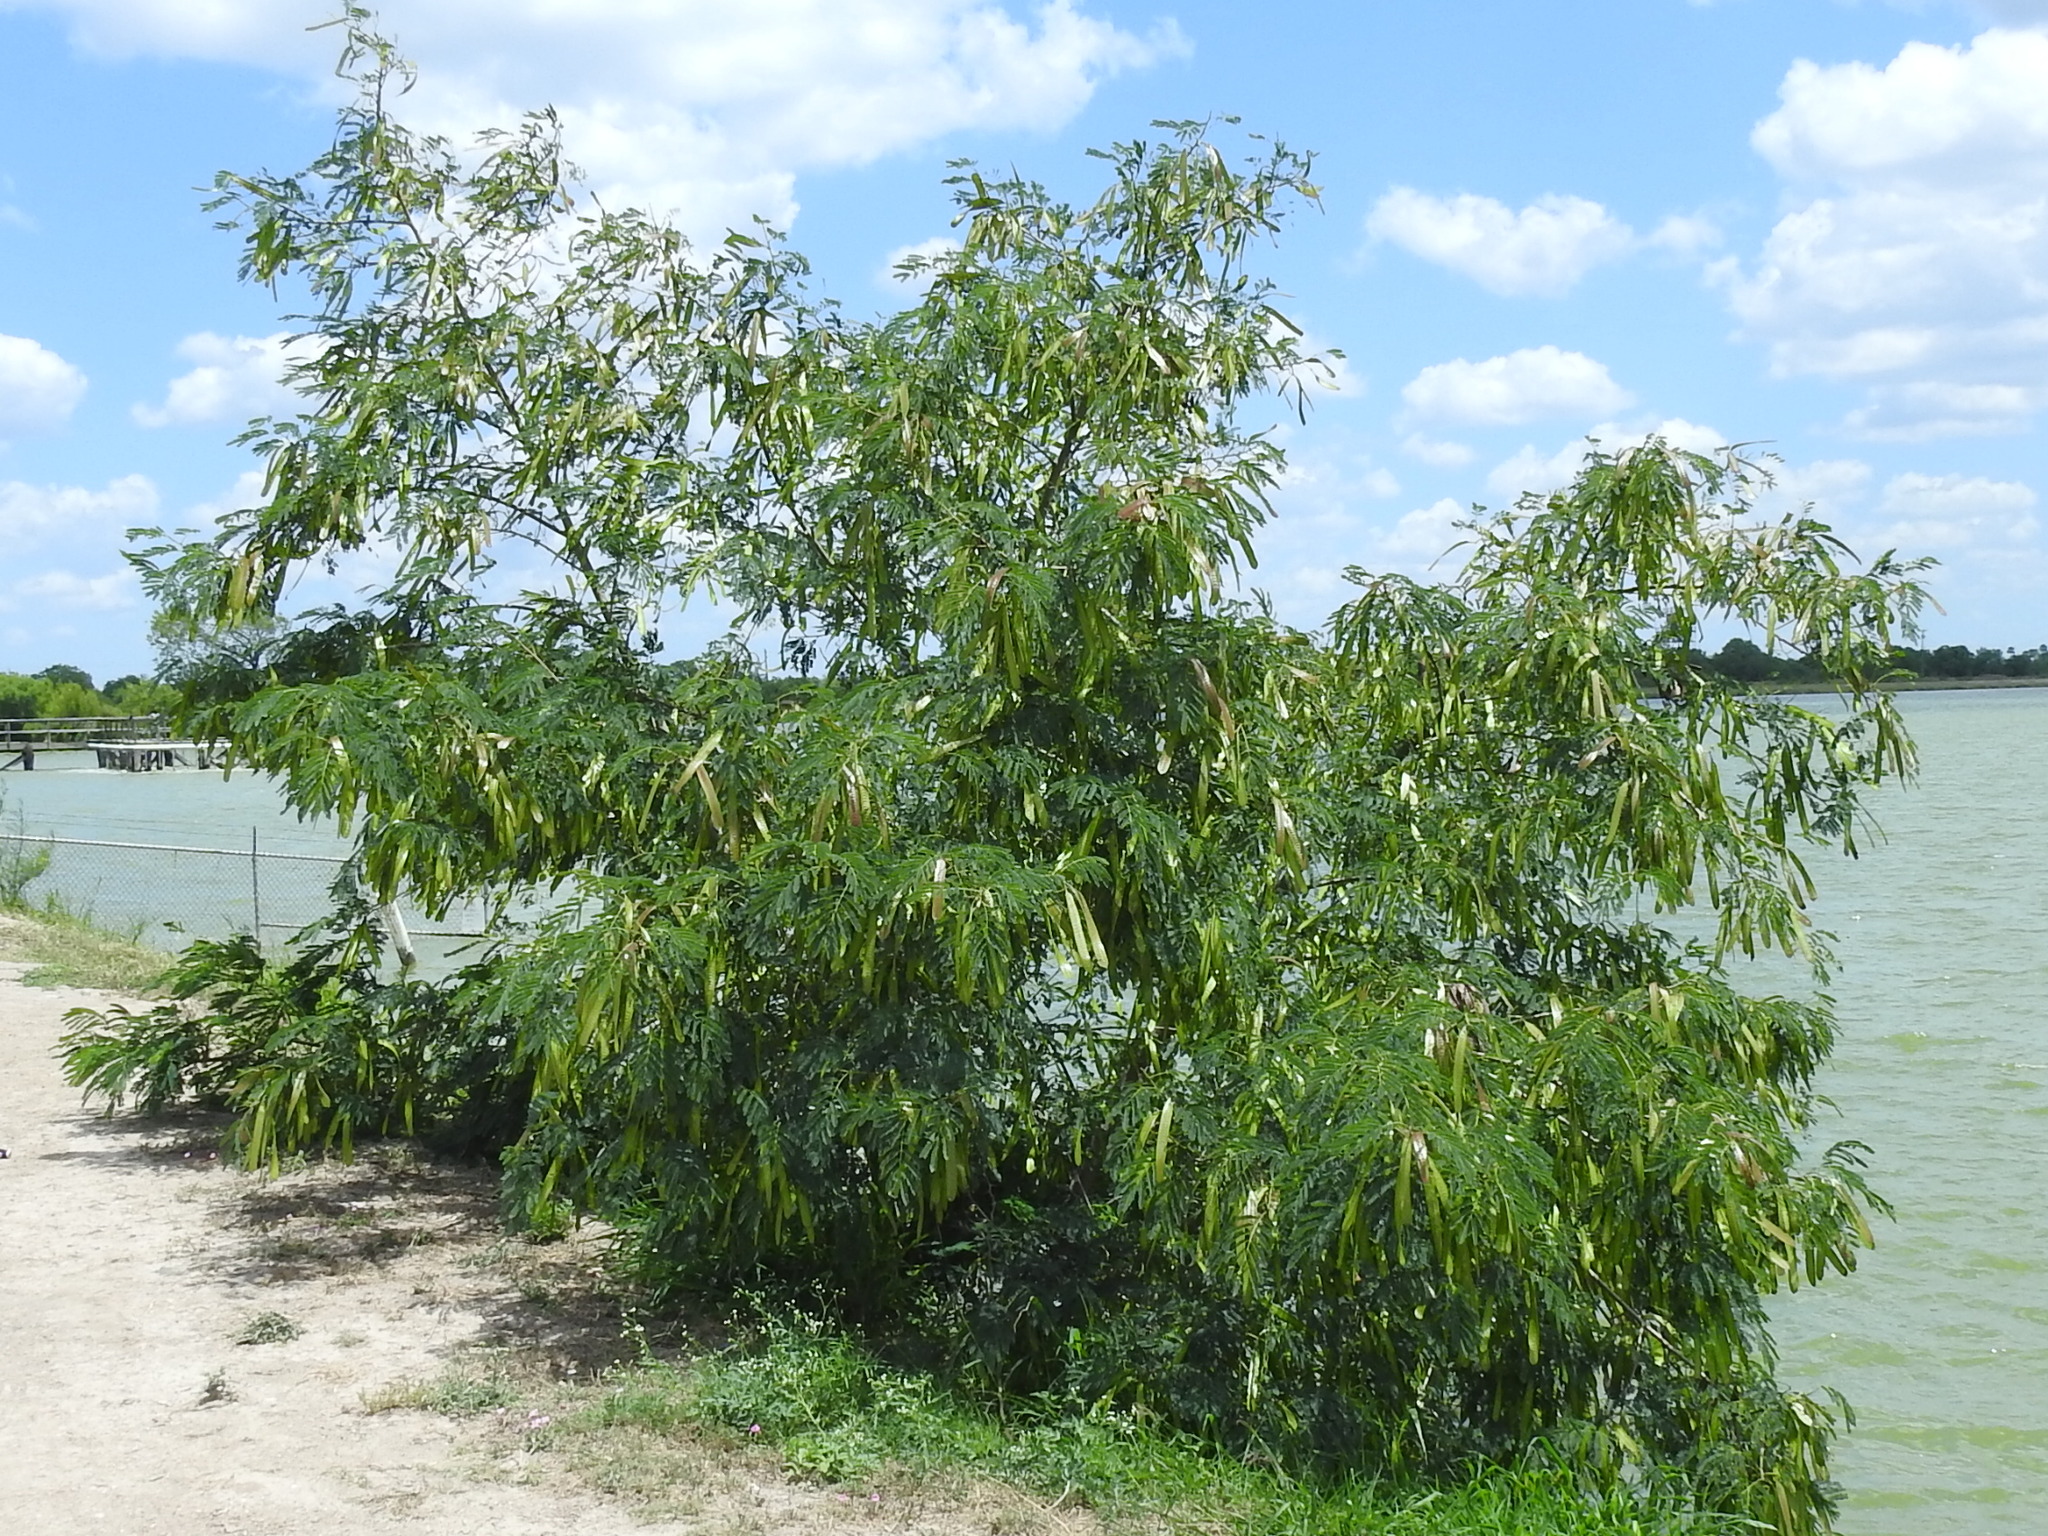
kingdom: Plantae
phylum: Tracheophyta
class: Magnoliopsida
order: Fabales
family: Fabaceae
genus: Leucaena
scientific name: Leucaena leucocephala
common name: White leadtree
